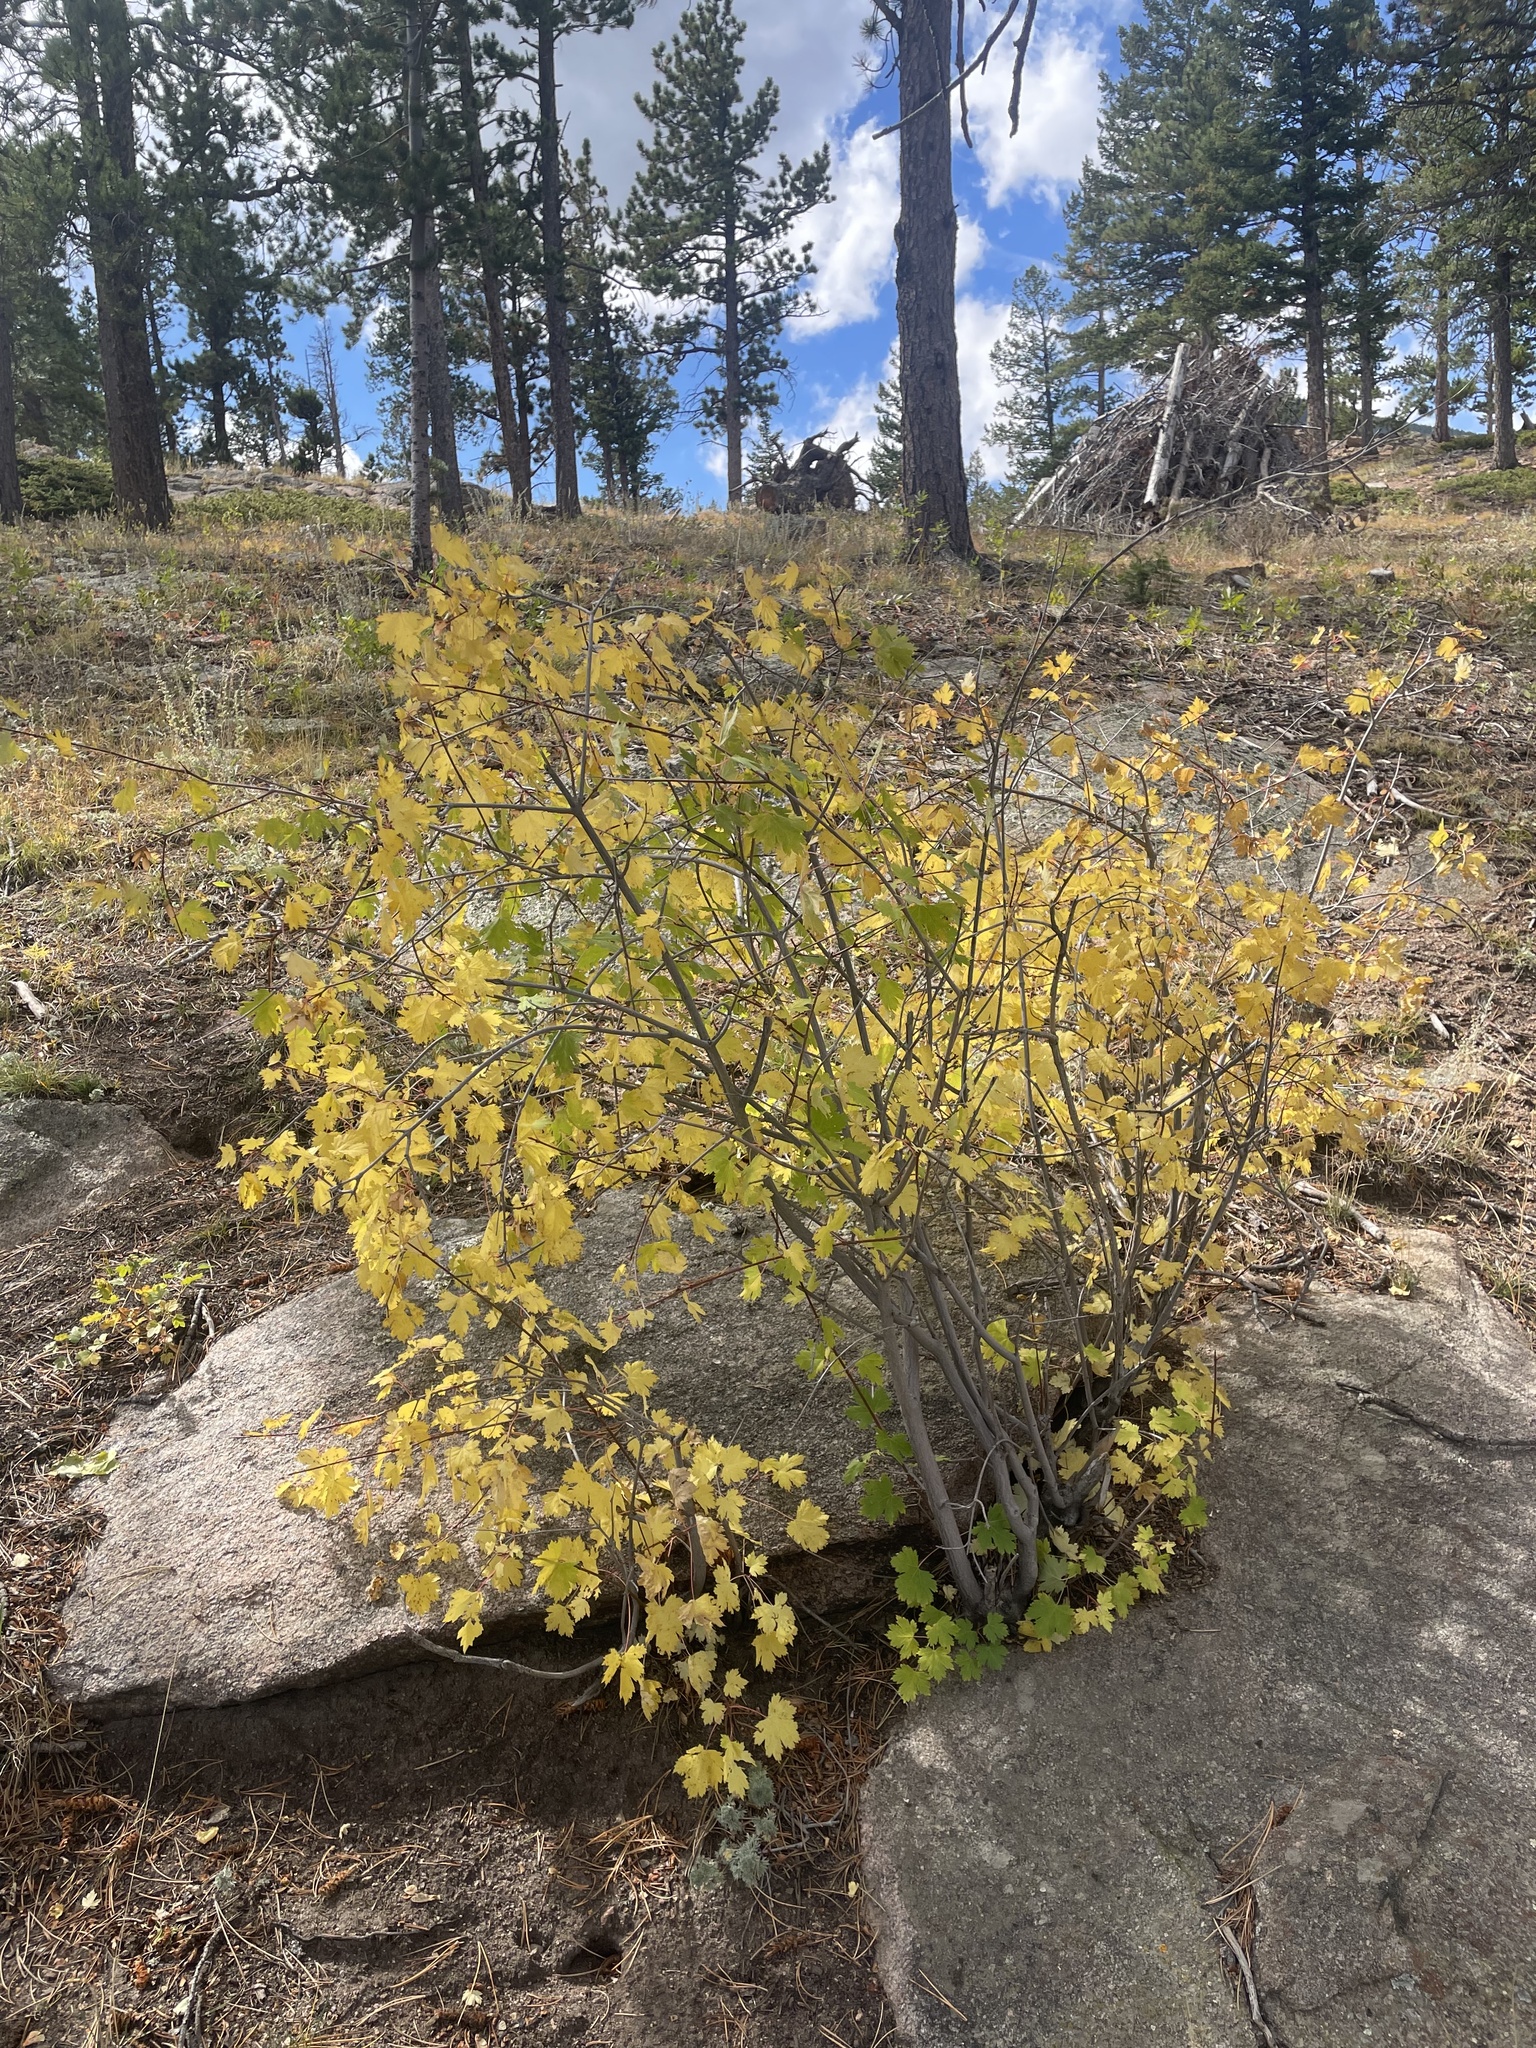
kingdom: Plantae
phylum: Tracheophyta
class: Magnoliopsida
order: Sapindales
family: Sapindaceae
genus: Acer
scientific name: Acer glabrum
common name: Rocky mountain maple
